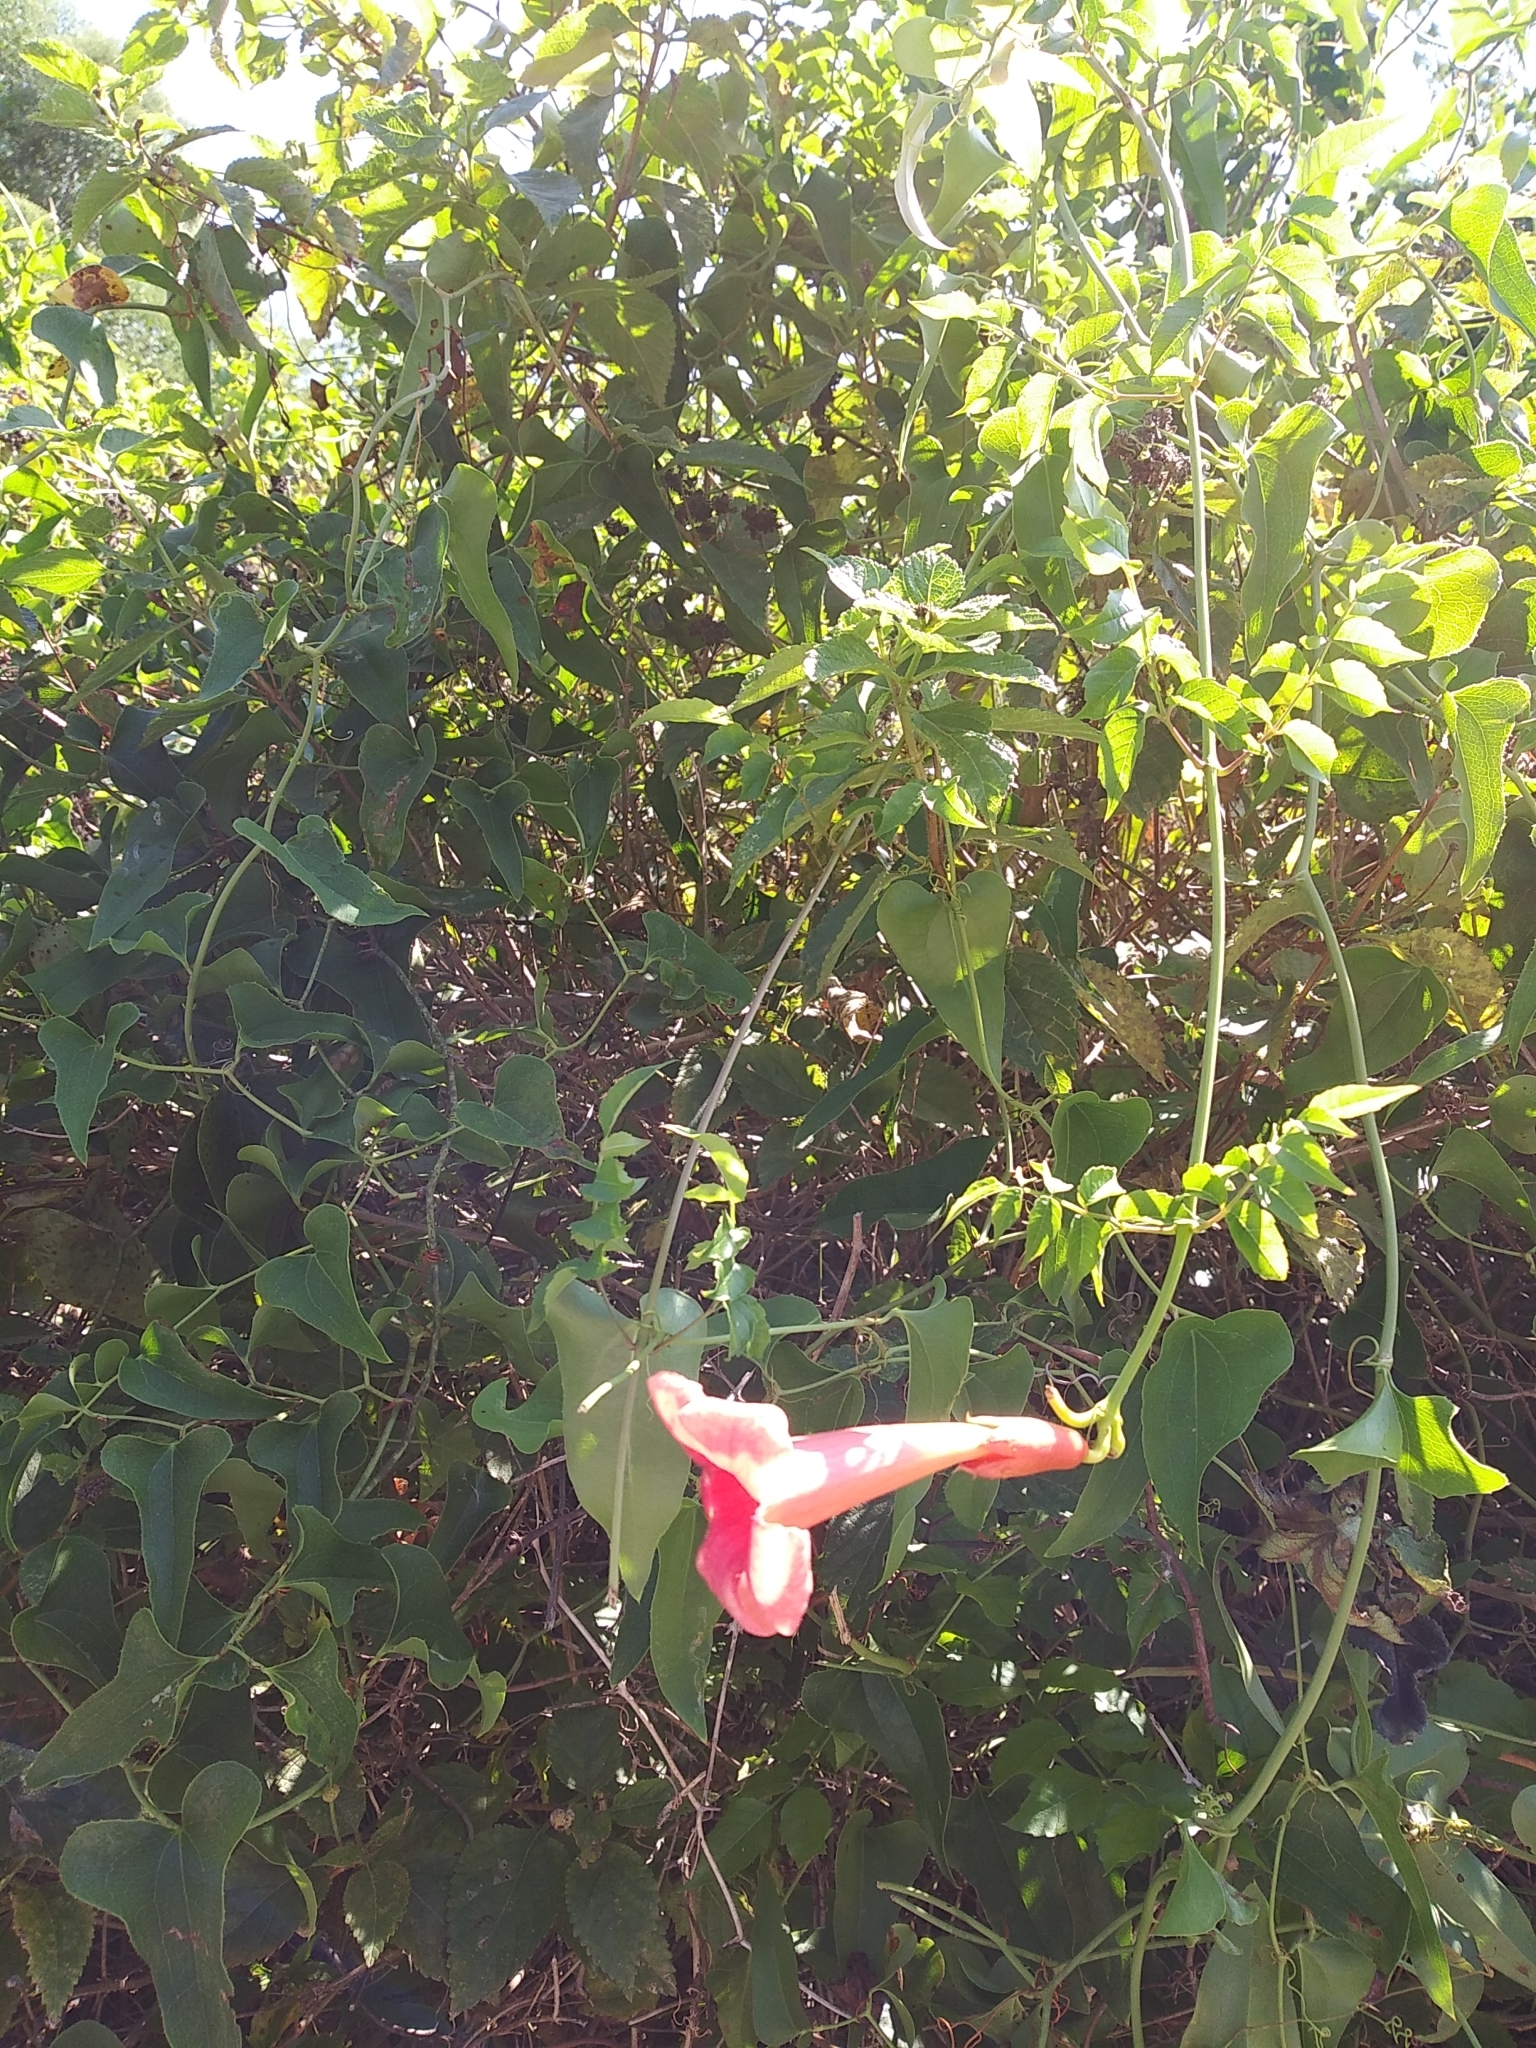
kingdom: Plantae
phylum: Tracheophyta
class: Magnoliopsida
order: Lamiales
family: Bignoniaceae
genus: Campsis
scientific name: Campsis radicans
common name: Trumpet-creeper
